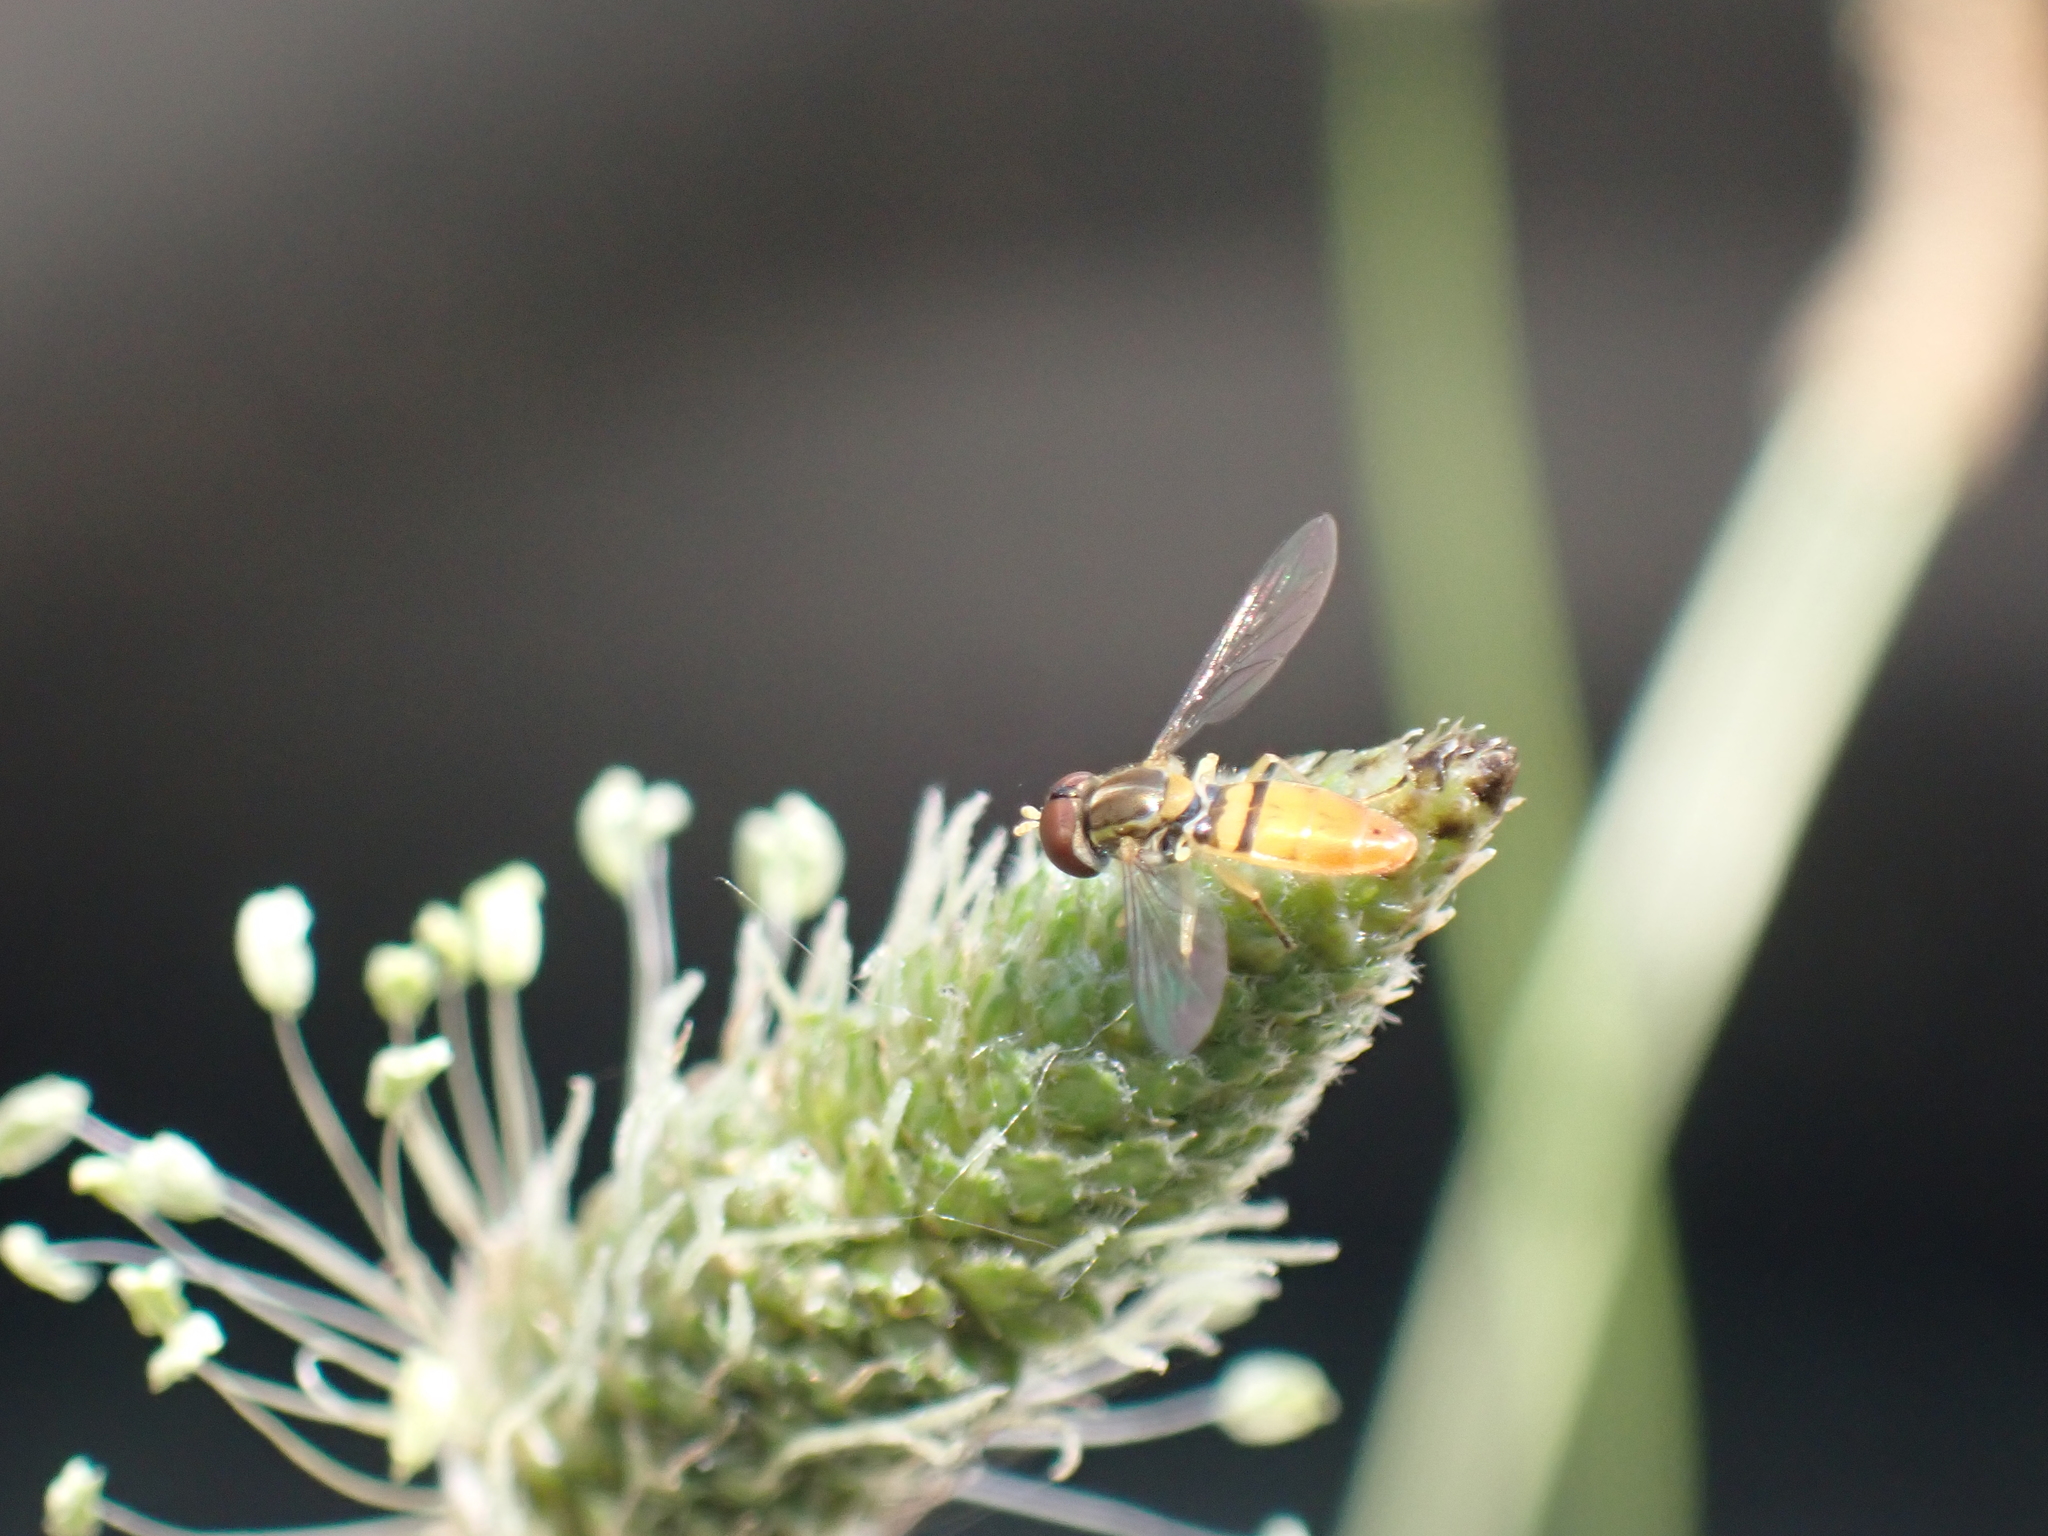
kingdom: Animalia
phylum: Arthropoda
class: Insecta
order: Diptera
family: Syrphidae
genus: Toxomerus
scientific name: Toxomerus marginatus
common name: Syrphid fly
